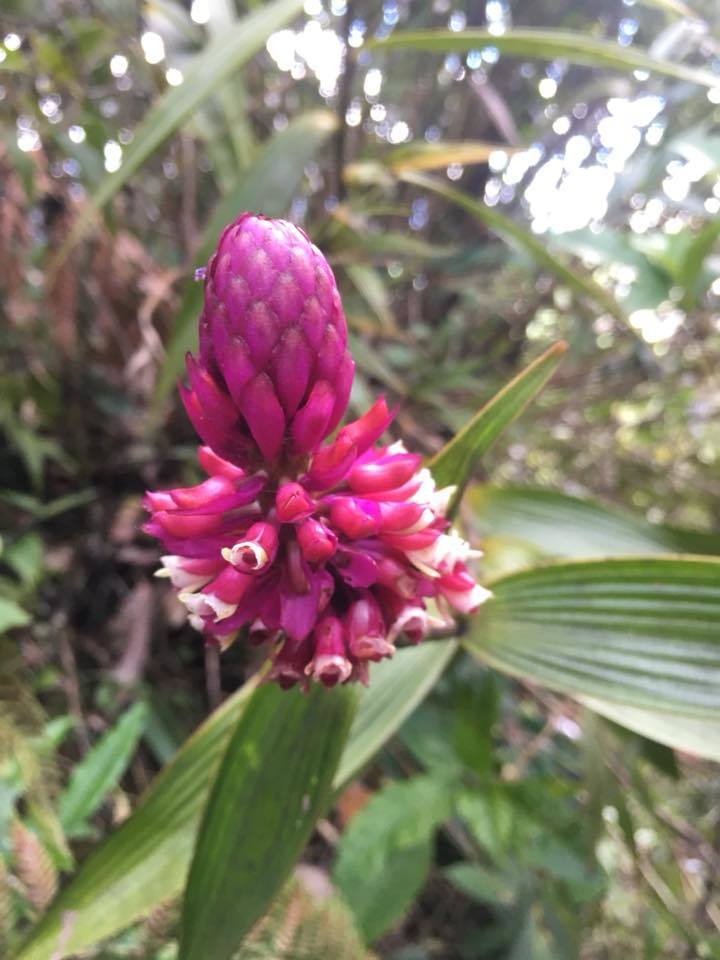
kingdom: Plantae
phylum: Tracheophyta
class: Liliopsida
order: Asparagales
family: Orchidaceae
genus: Elleanthus
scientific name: Elleanthus smithii
